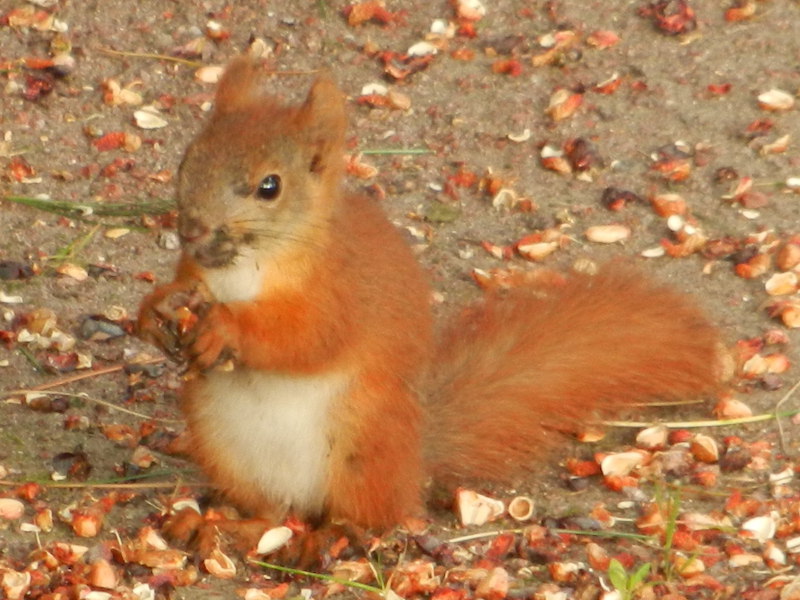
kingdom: Animalia
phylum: Chordata
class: Mammalia
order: Rodentia
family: Sciuridae
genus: Sciurus
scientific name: Sciurus vulgaris
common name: Eurasian red squirrel
